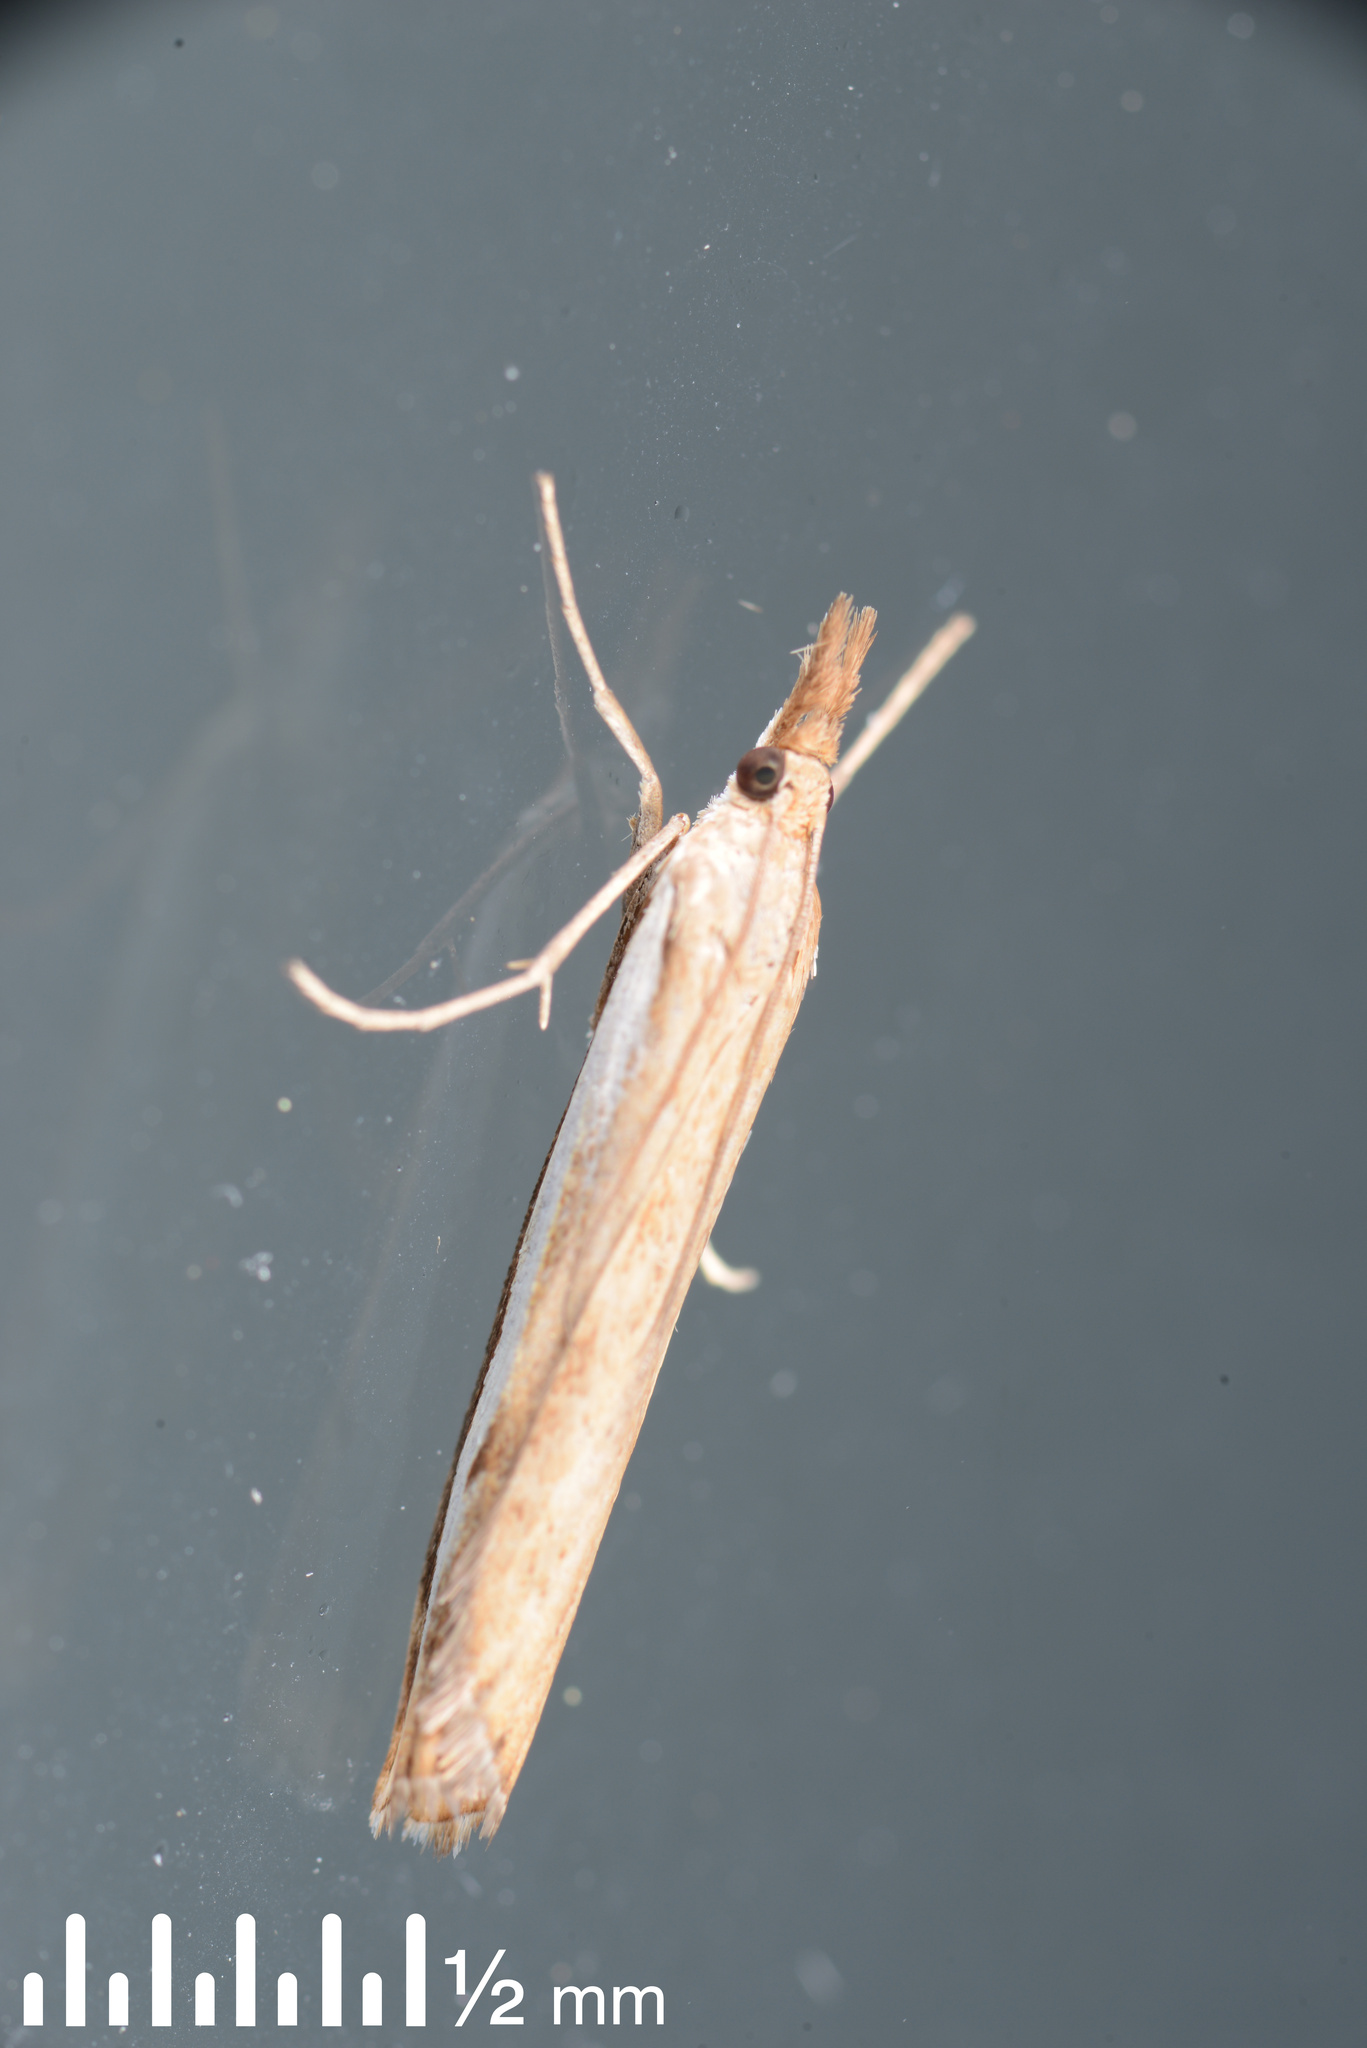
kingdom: Animalia
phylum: Arthropoda
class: Insecta
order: Lepidoptera
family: Crambidae
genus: Orocrambus
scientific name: Orocrambus flexuosellus
